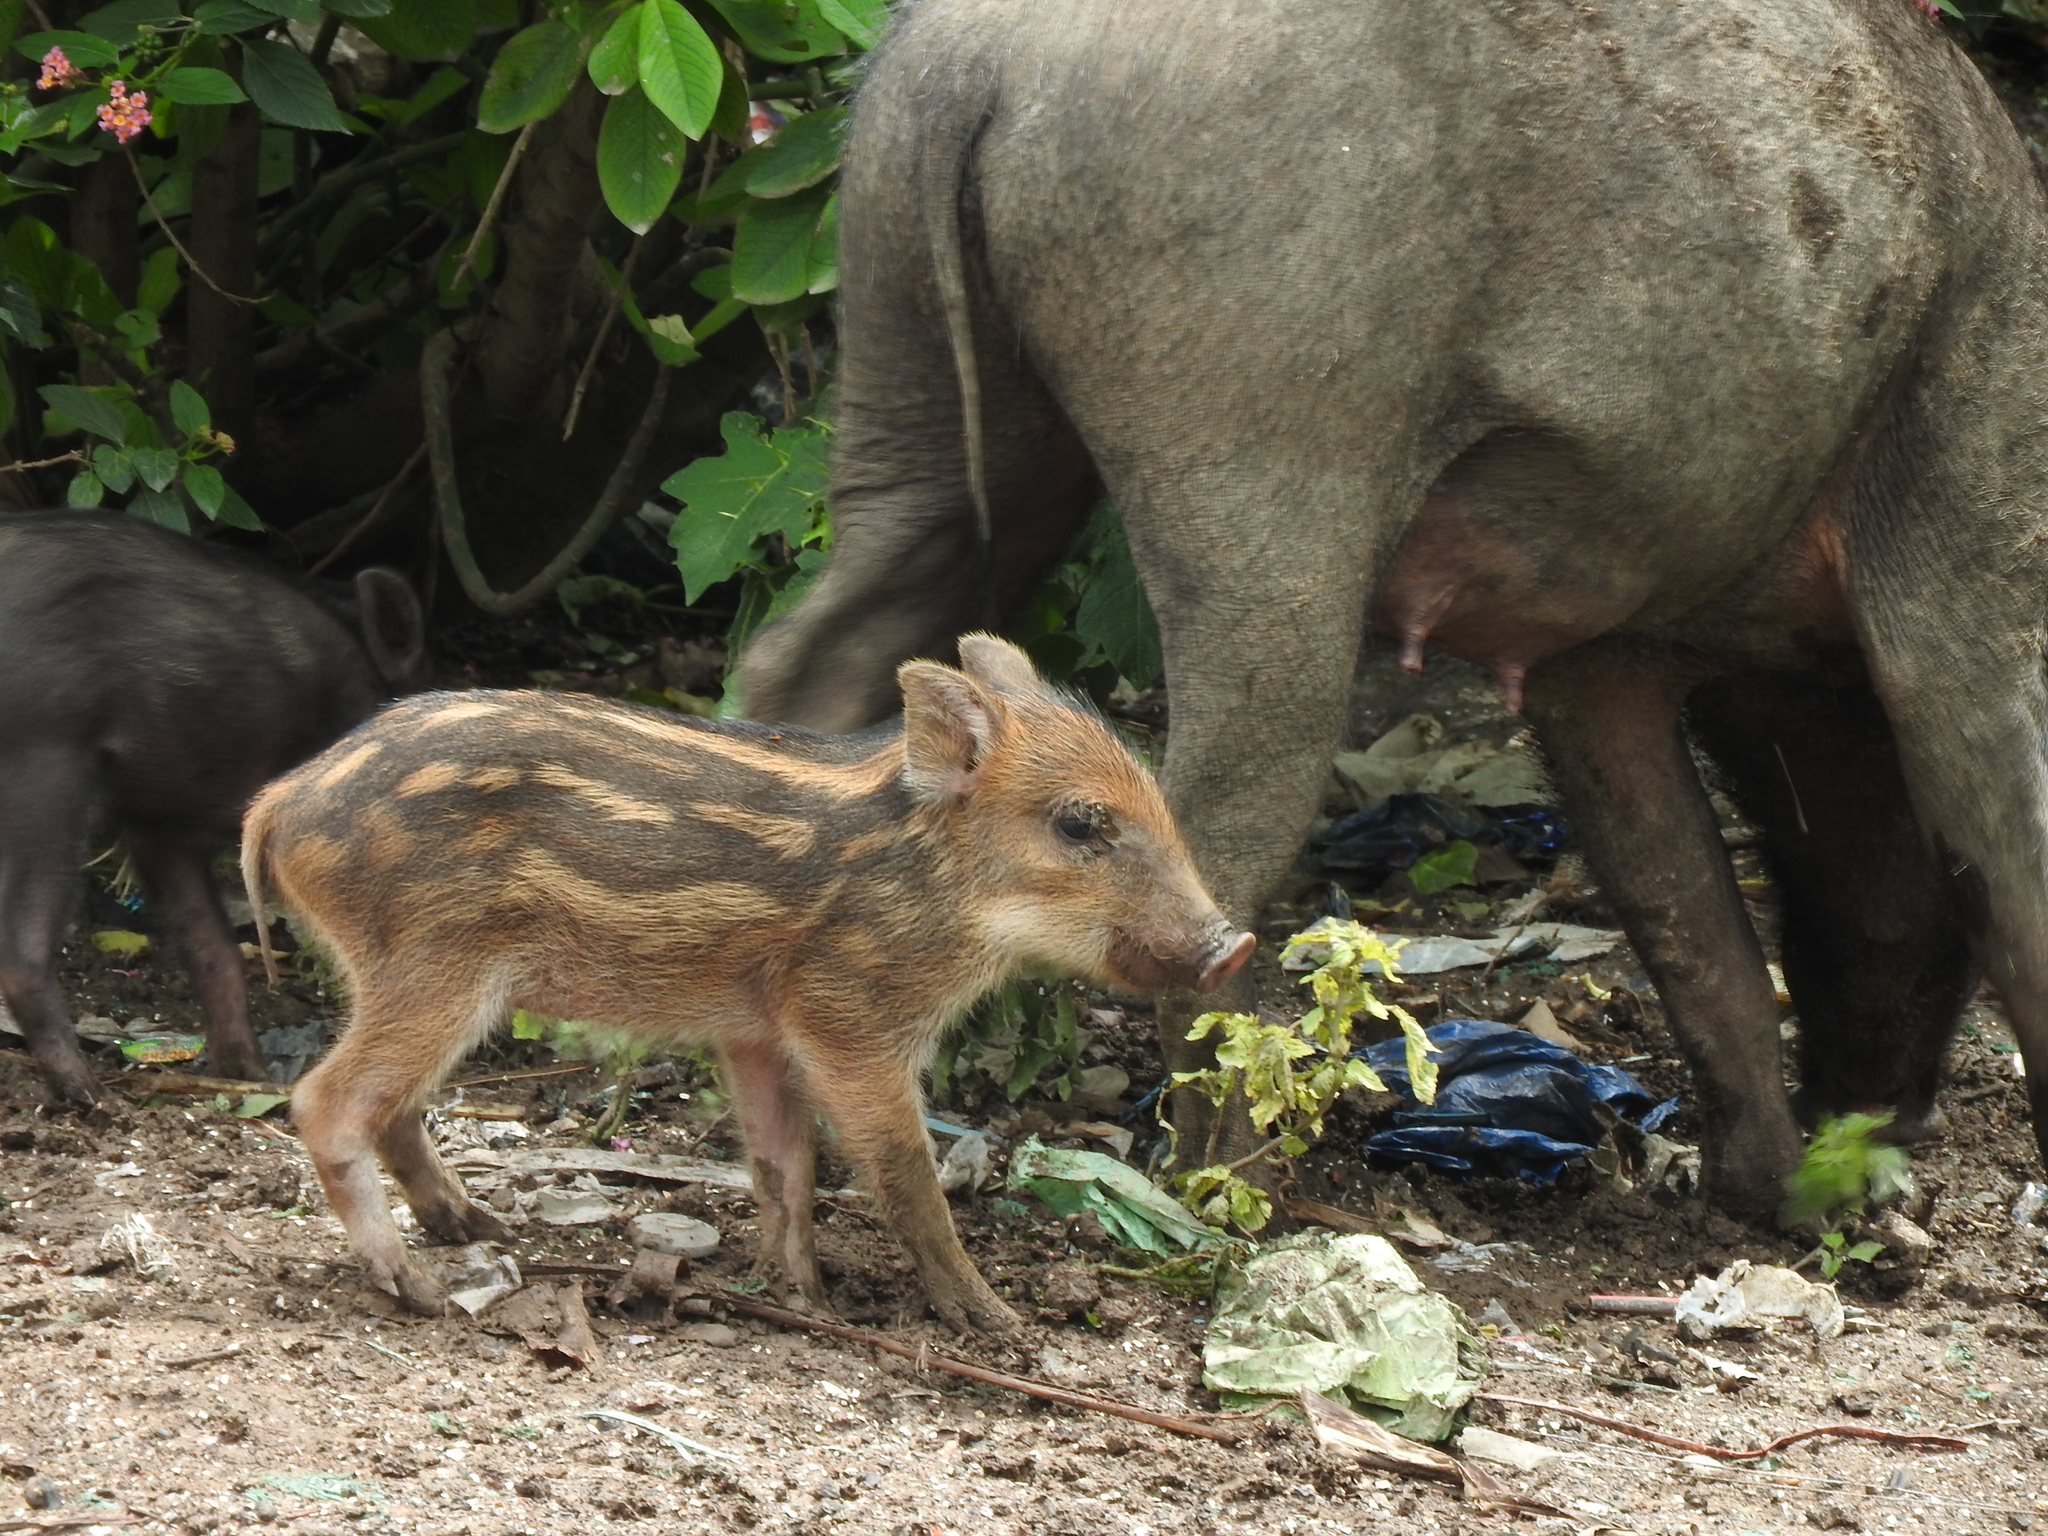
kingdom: Animalia
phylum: Chordata
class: Mammalia
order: Artiodactyla
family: Suidae
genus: Sus
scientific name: Sus scrofa
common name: Wild boar
